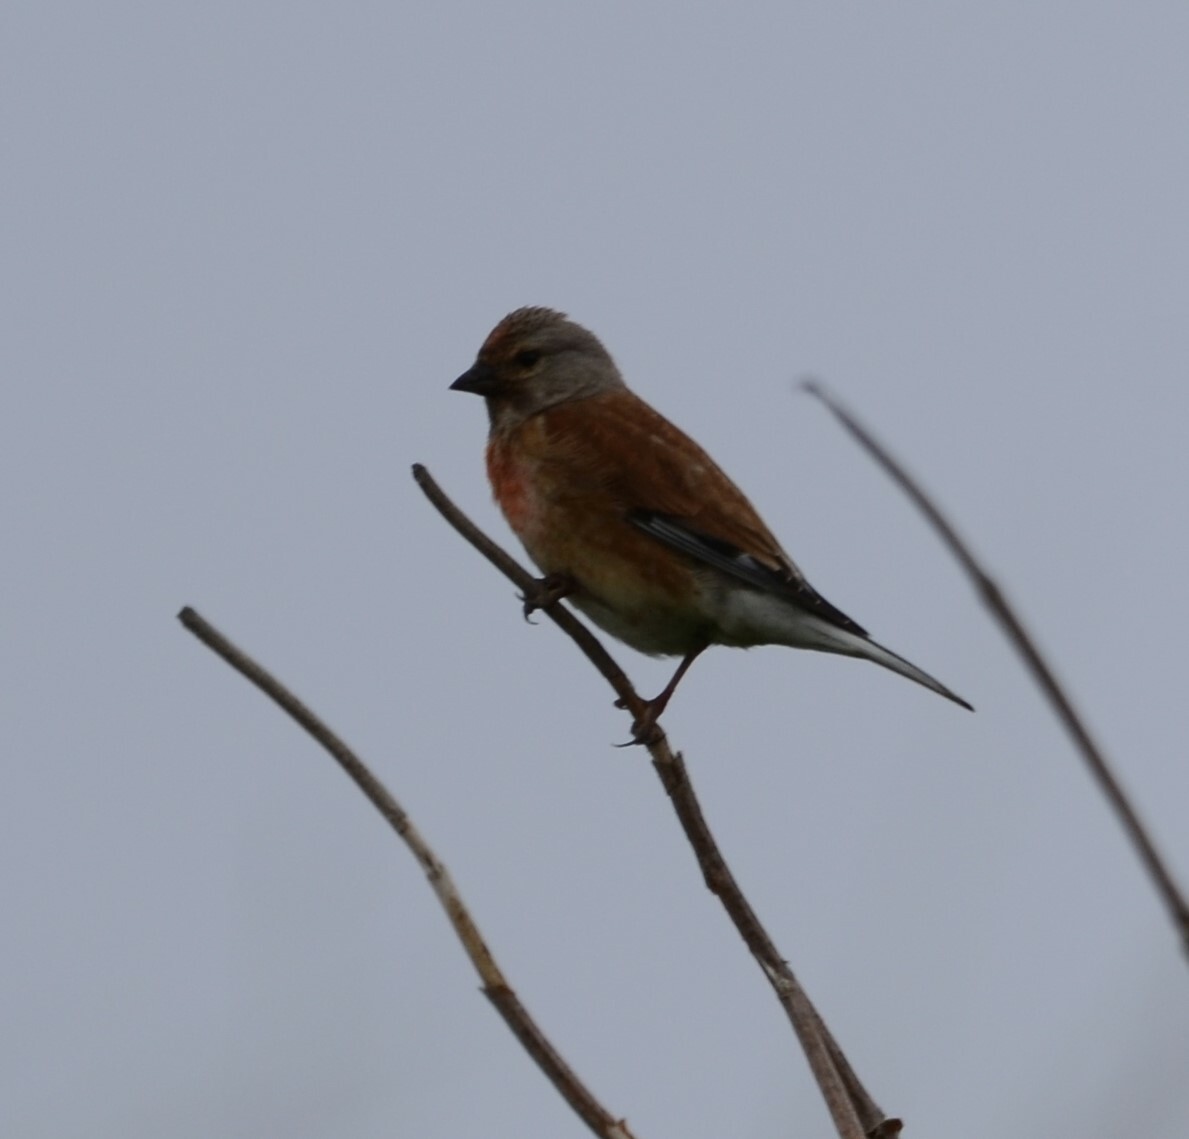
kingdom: Animalia
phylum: Chordata
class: Aves
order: Passeriformes
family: Fringillidae
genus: Linaria
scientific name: Linaria cannabina
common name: Common linnet
